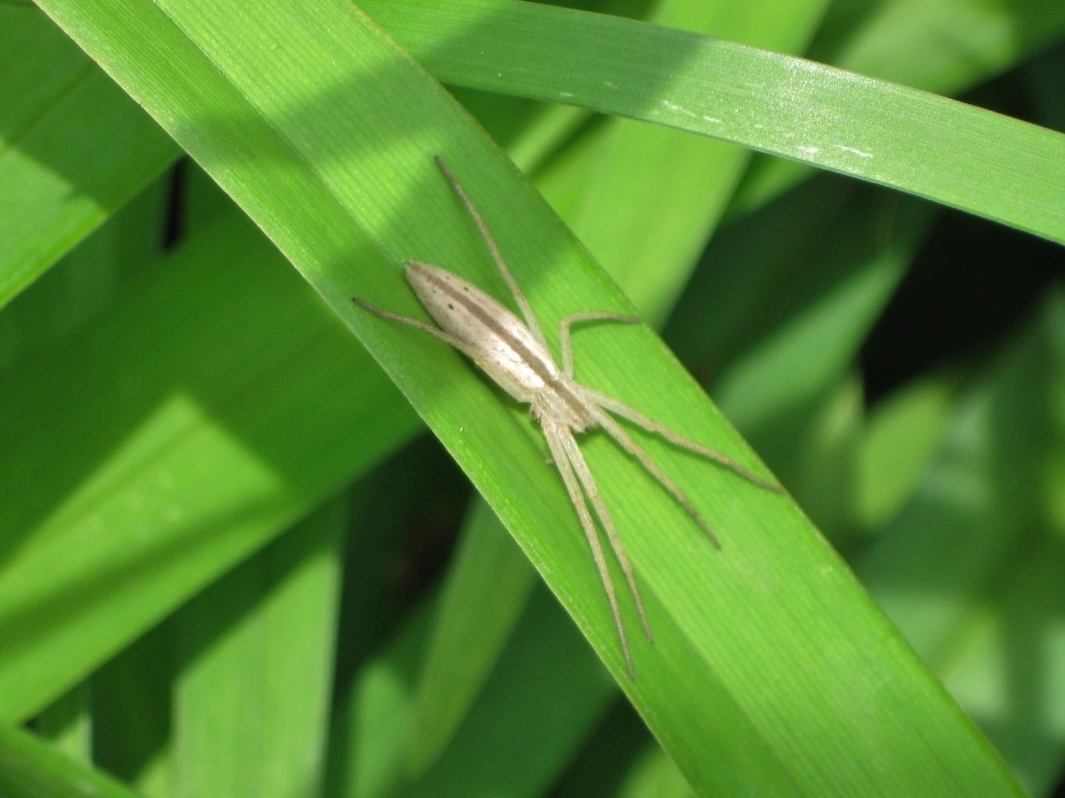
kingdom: Animalia
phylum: Arthropoda
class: Arachnida
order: Araneae
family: Philodromidae
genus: Tibellus
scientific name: Tibellus oblongus
